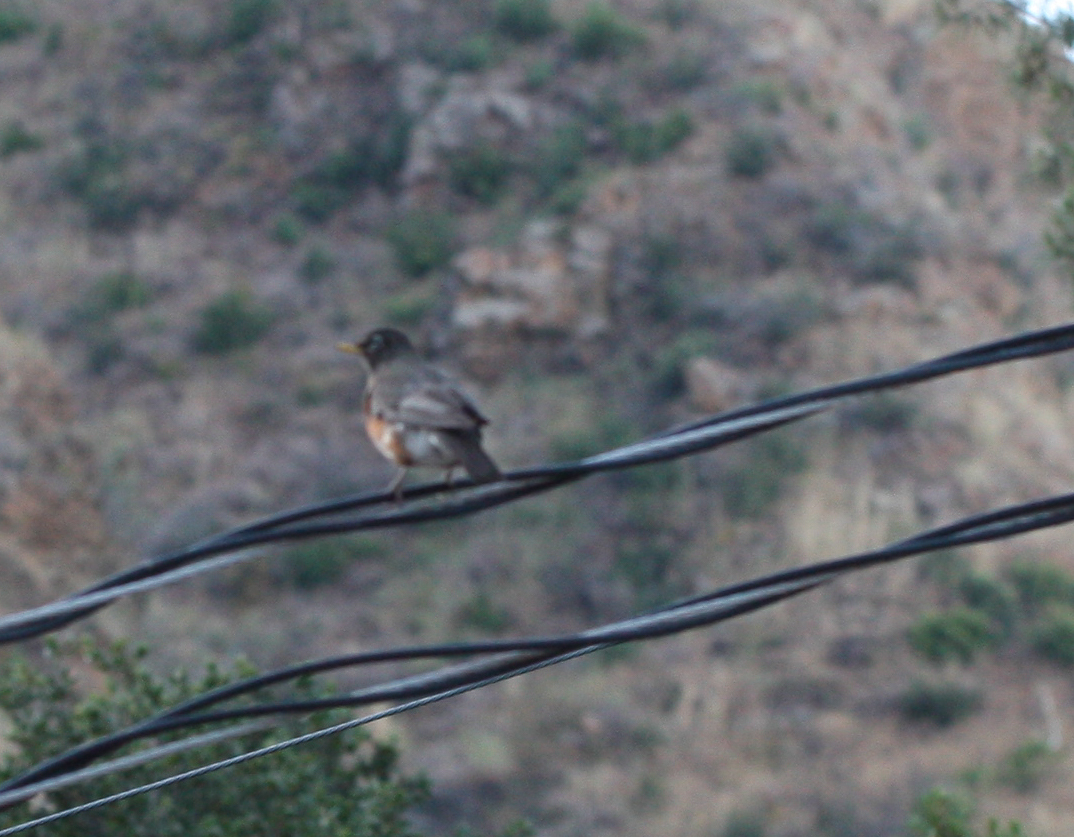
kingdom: Animalia
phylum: Chordata
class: Aves
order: Passeriformes
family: Turdidae
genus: Turdus
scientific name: Turdus migratorius
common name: American robin
